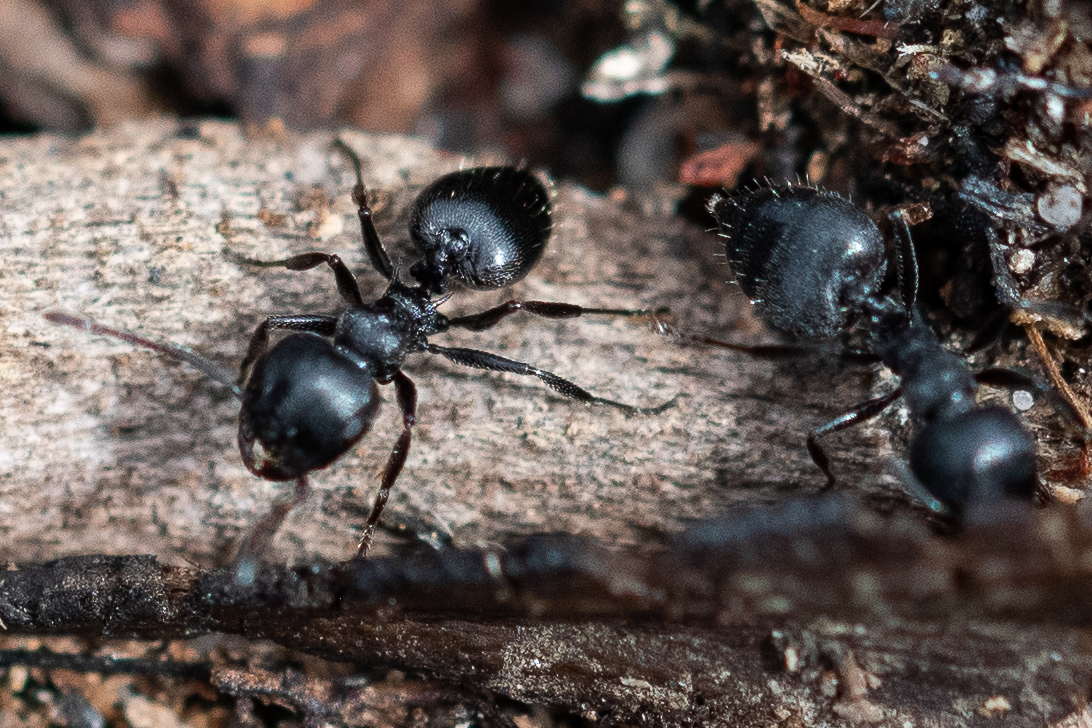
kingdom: Animalia
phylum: Arthropoda
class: Insecta
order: Hymenoptera
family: Formicidae
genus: Crematogaster
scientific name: Crematogaster peringueyi
